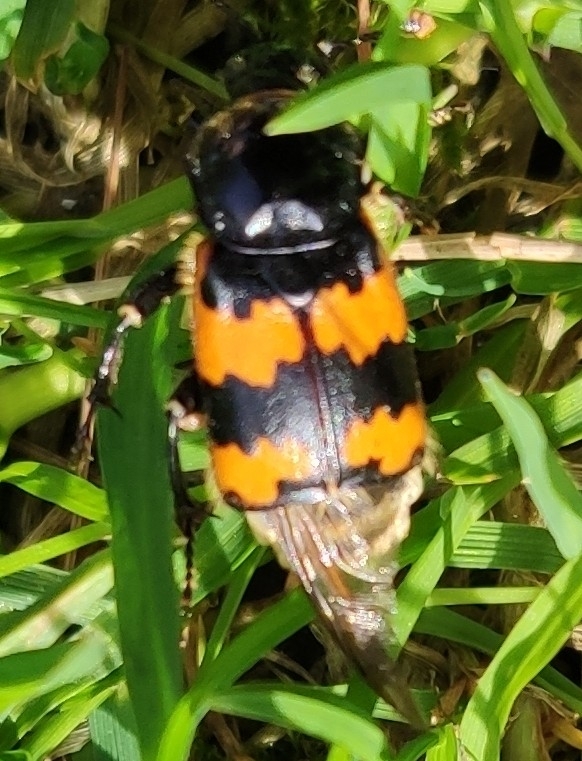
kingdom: Animalia
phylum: Arthropoda
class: Insecta
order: Coleoptera
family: Staphylinidae
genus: Nicrophorus
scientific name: Nicrophorus vespillo
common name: Common burying beetle
